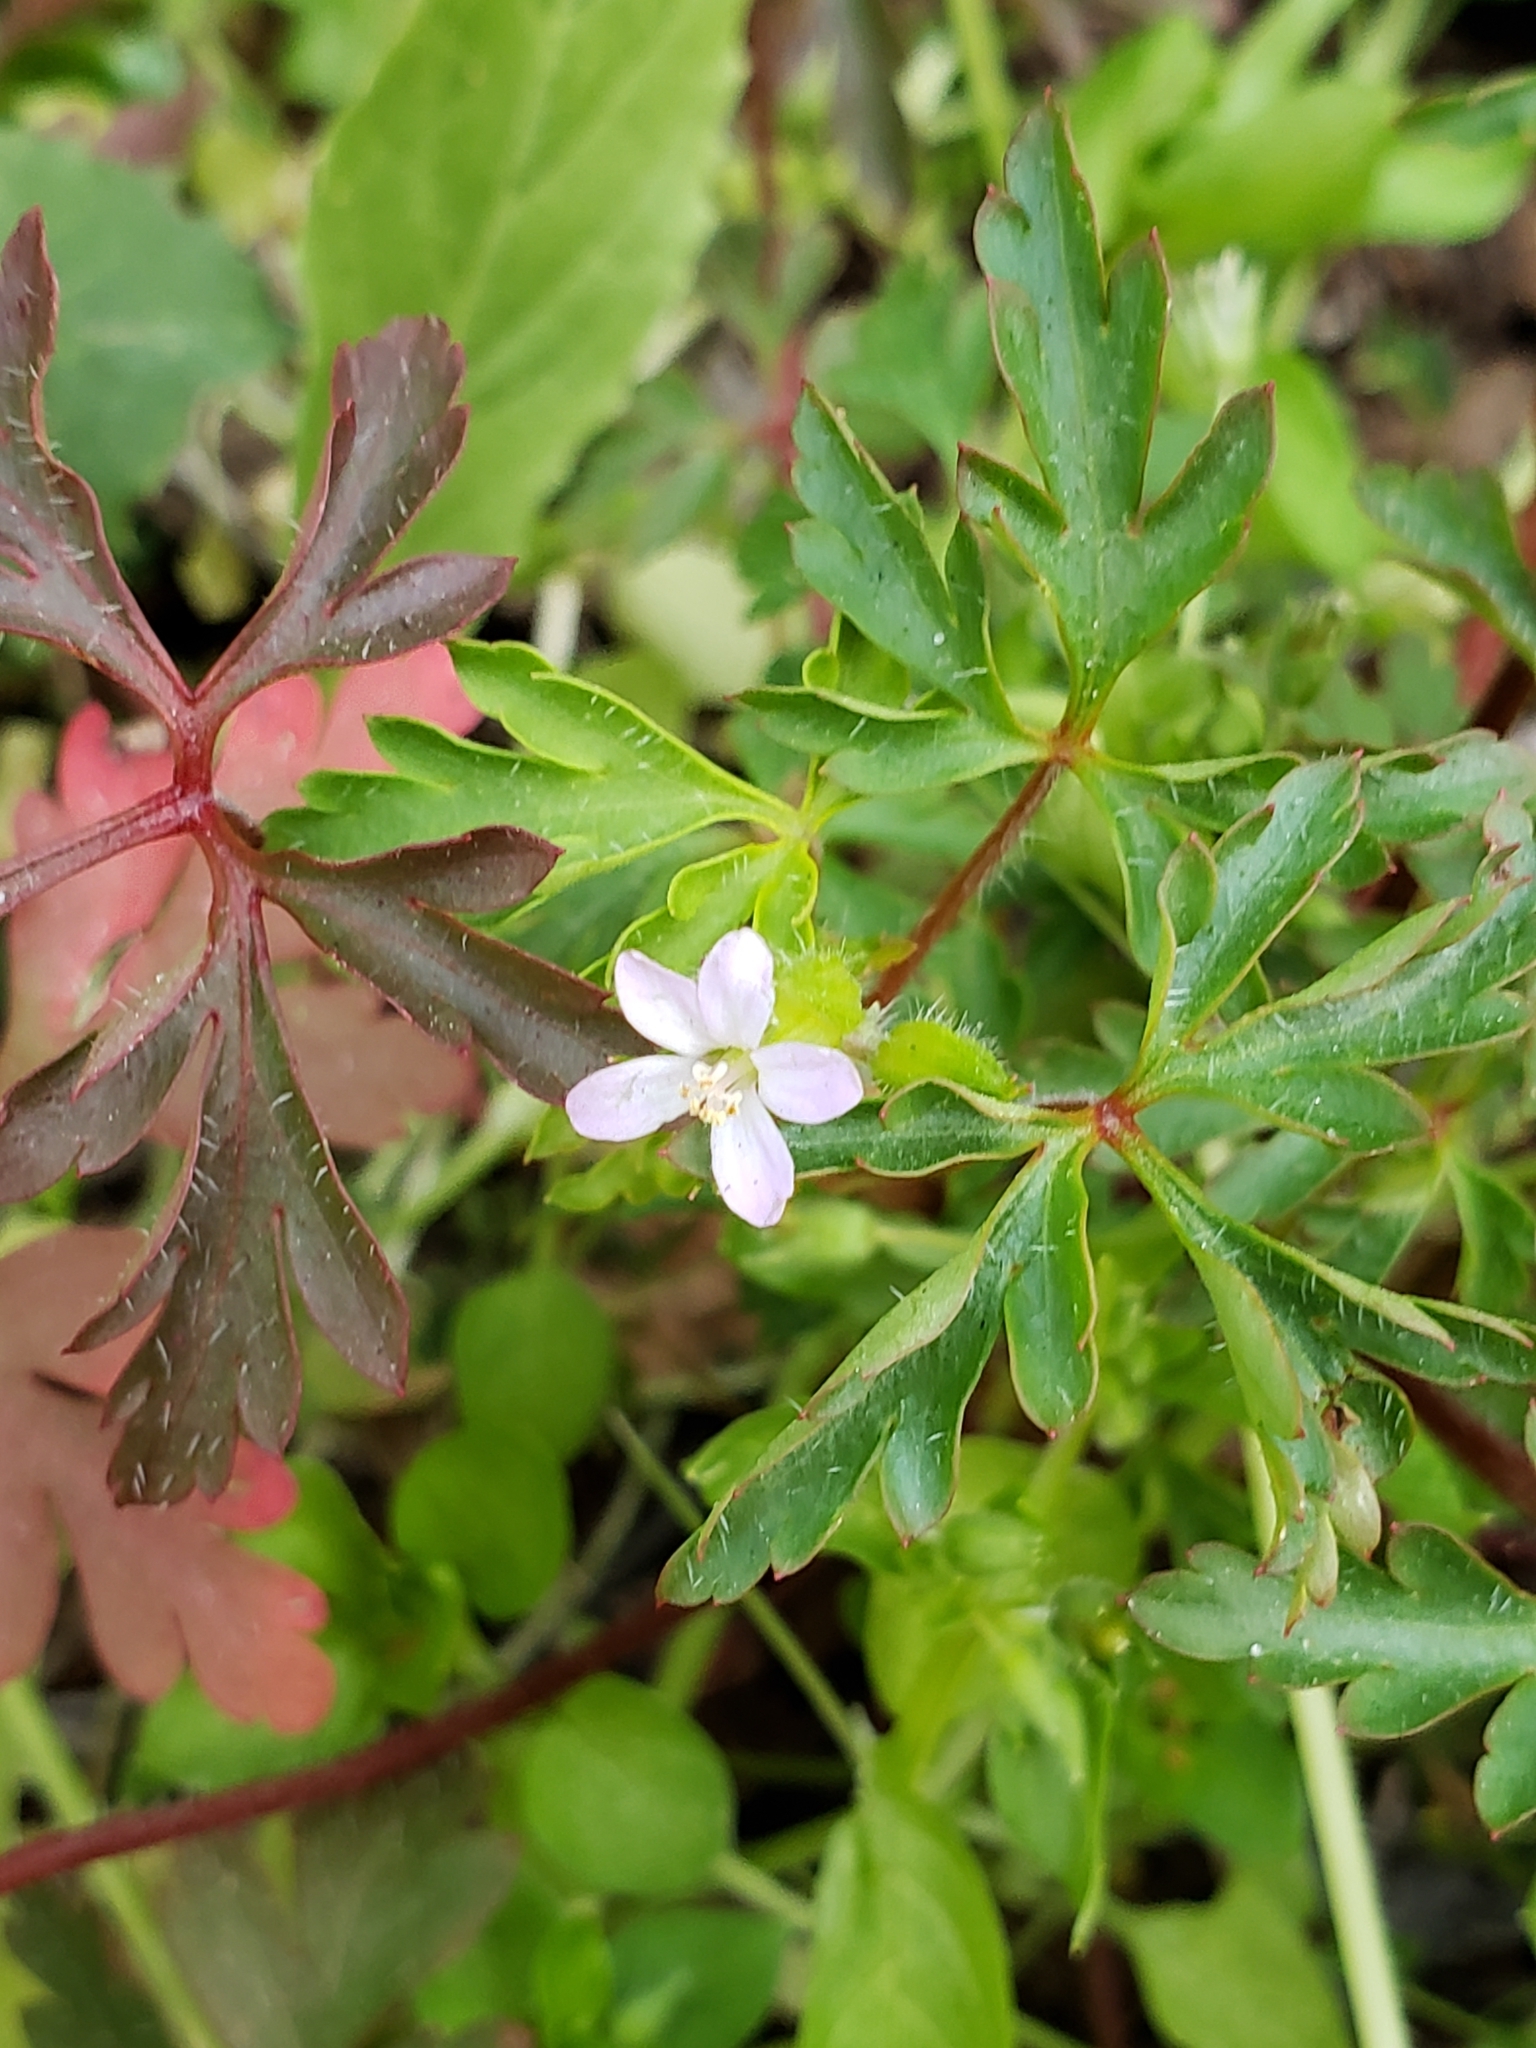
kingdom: Plantae
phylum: Tracheophyta
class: Magnoliopsida
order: Geraniales
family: Geraniaceae
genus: Geranium
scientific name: Geranium robertianum
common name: Herb-robert
